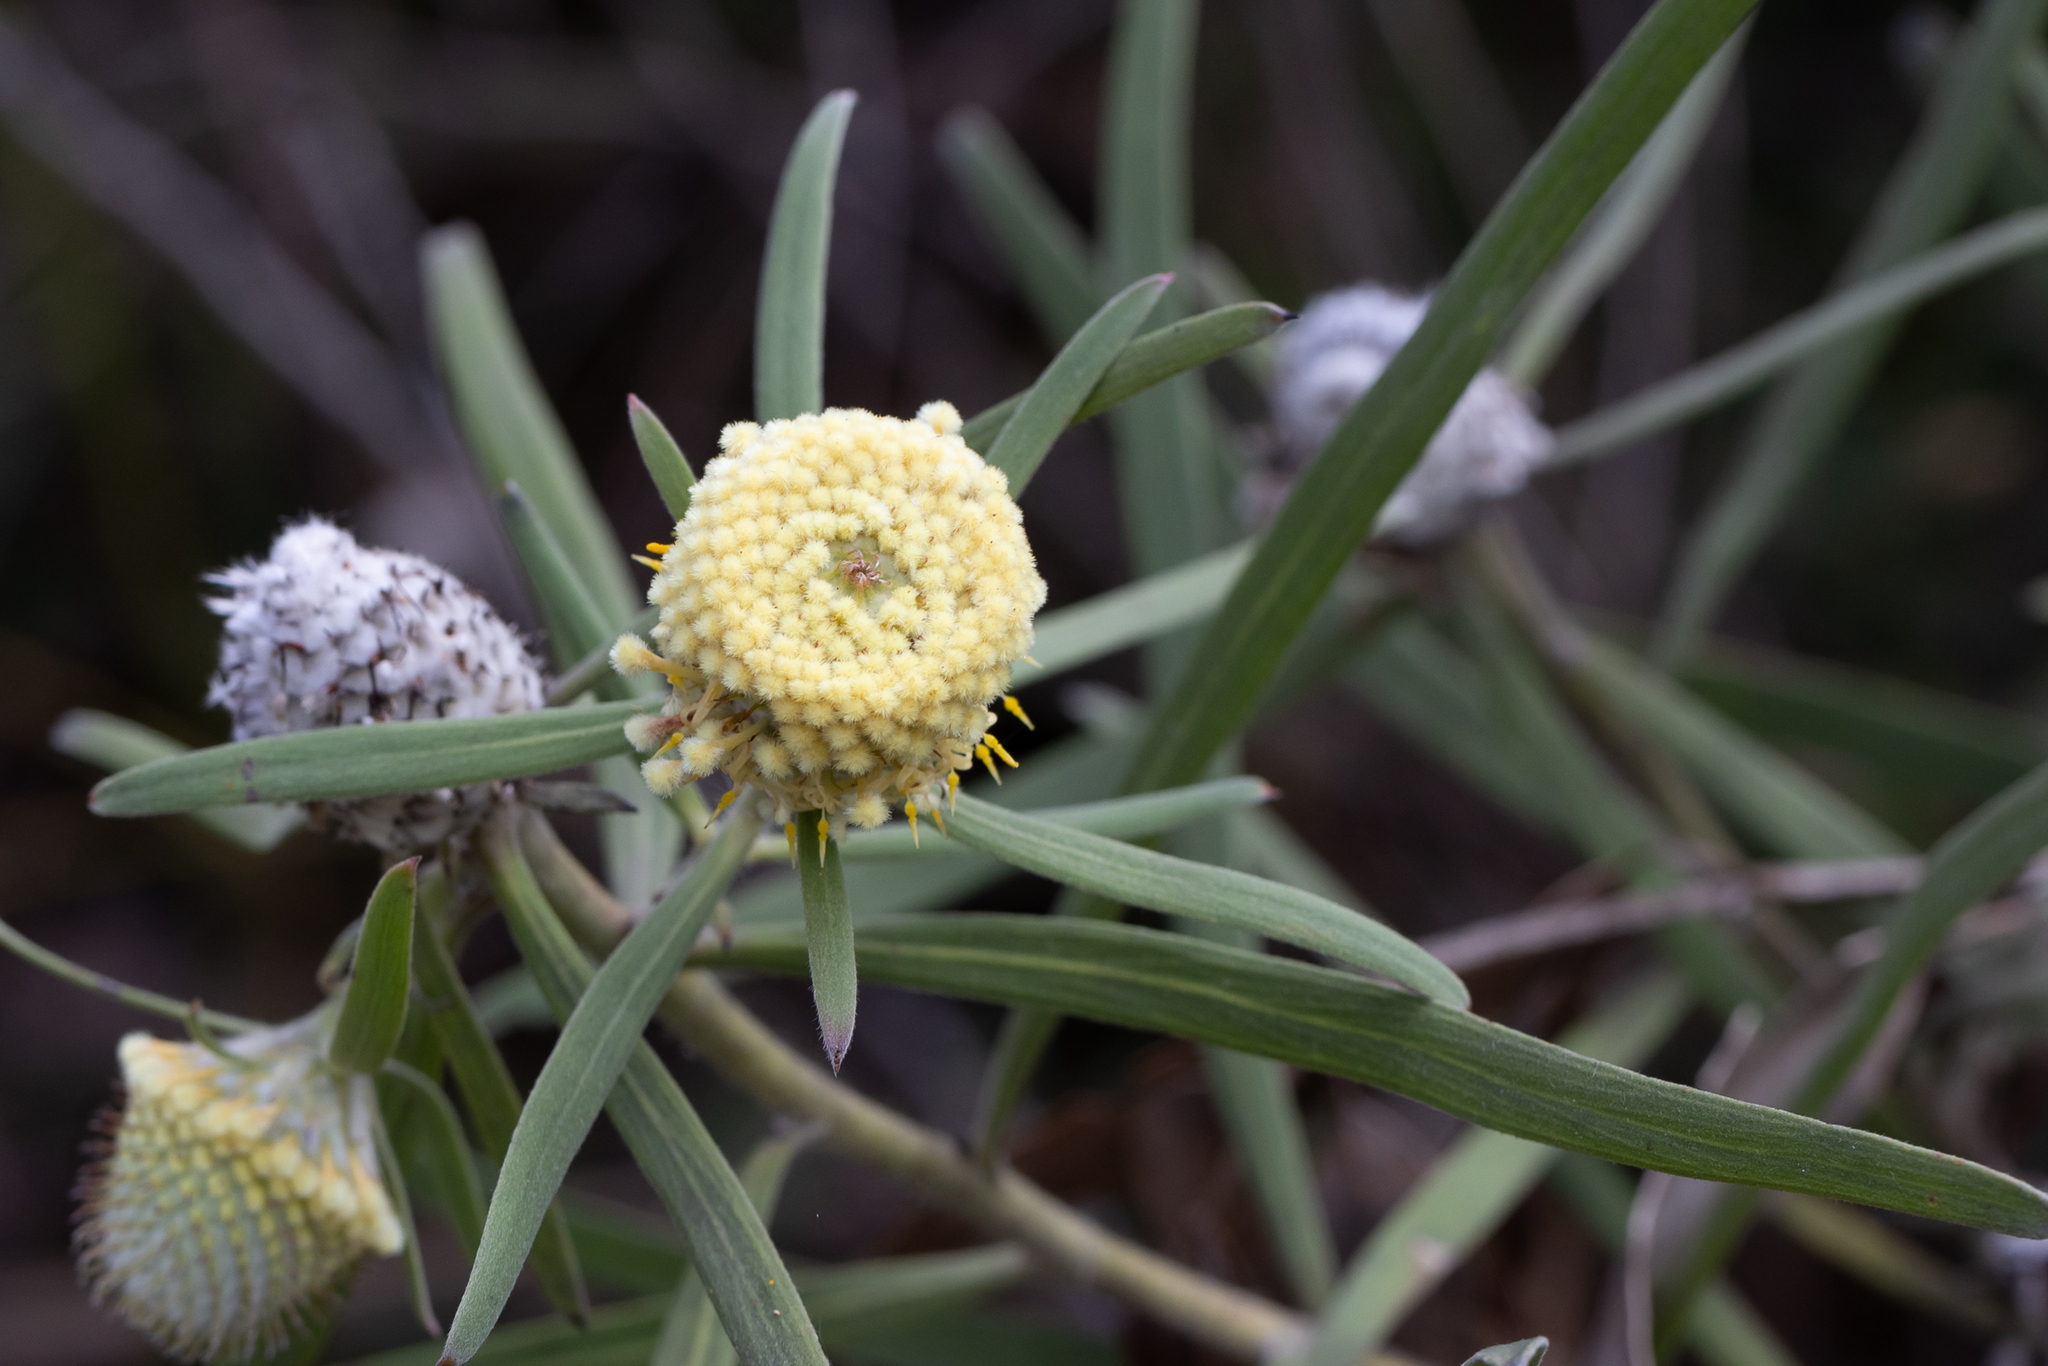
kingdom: Plantae
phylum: Tracheophyta
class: Magnoliopsida
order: Proteales
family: Proteaceae
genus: Isopogon
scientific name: Isopogon sphaerocephalus
